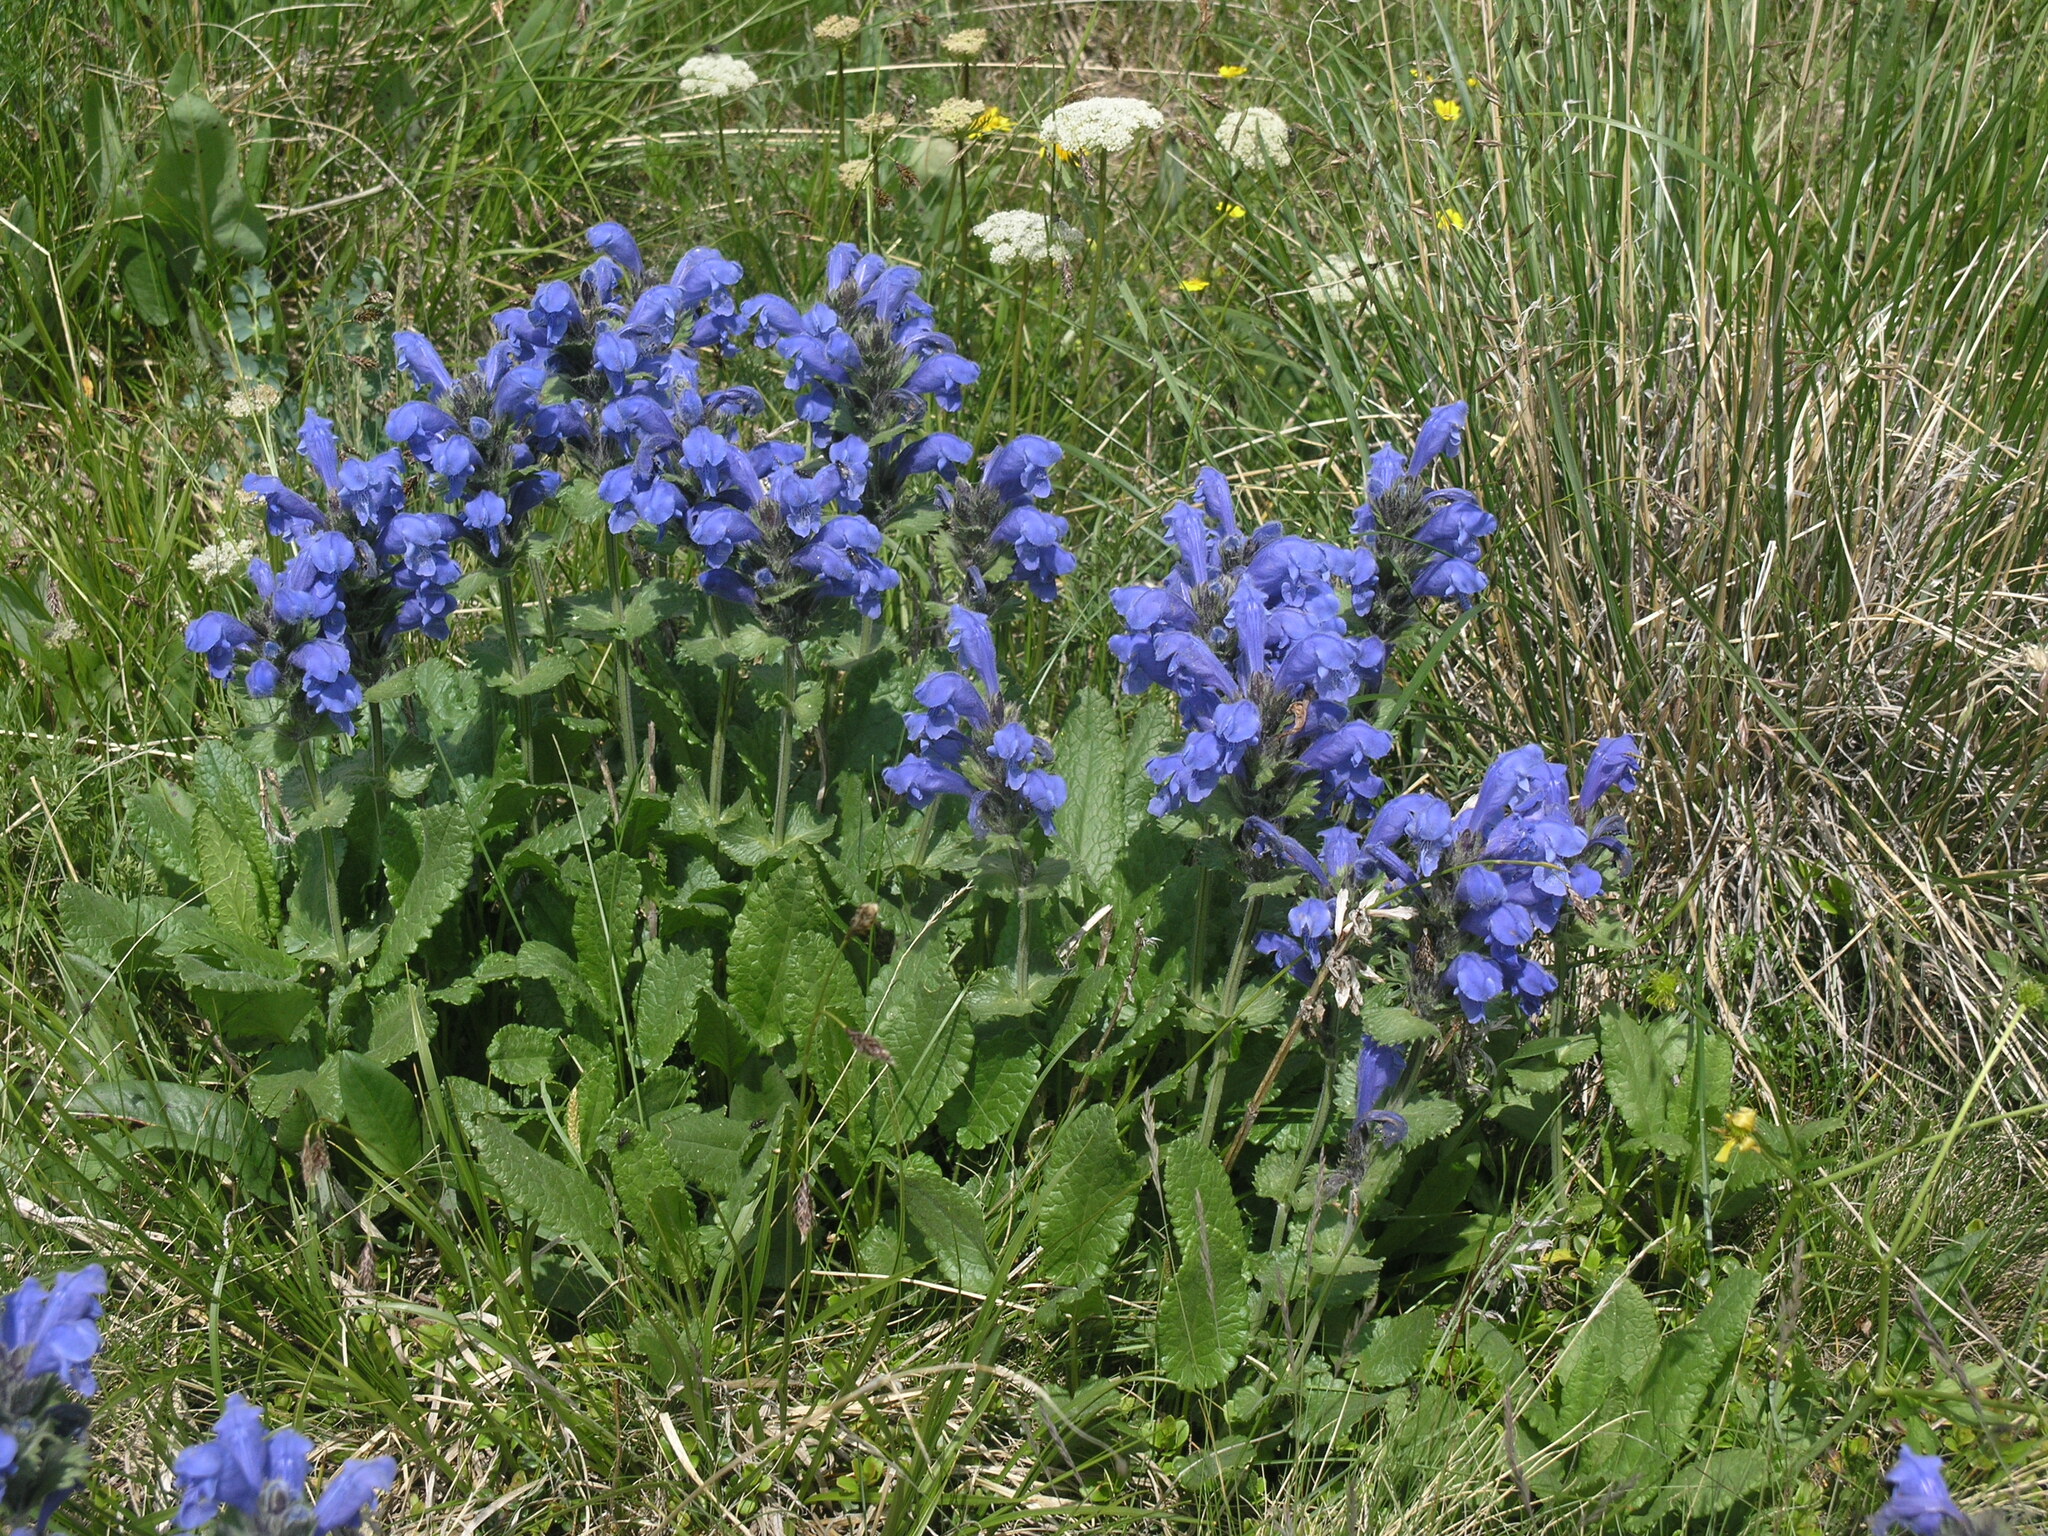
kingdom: Plantae
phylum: Tracheophyta
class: Magnoliopsida
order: Lamiales
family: Lamiaceae
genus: Dracocephalum
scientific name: Dracocephalum grandiflorum
